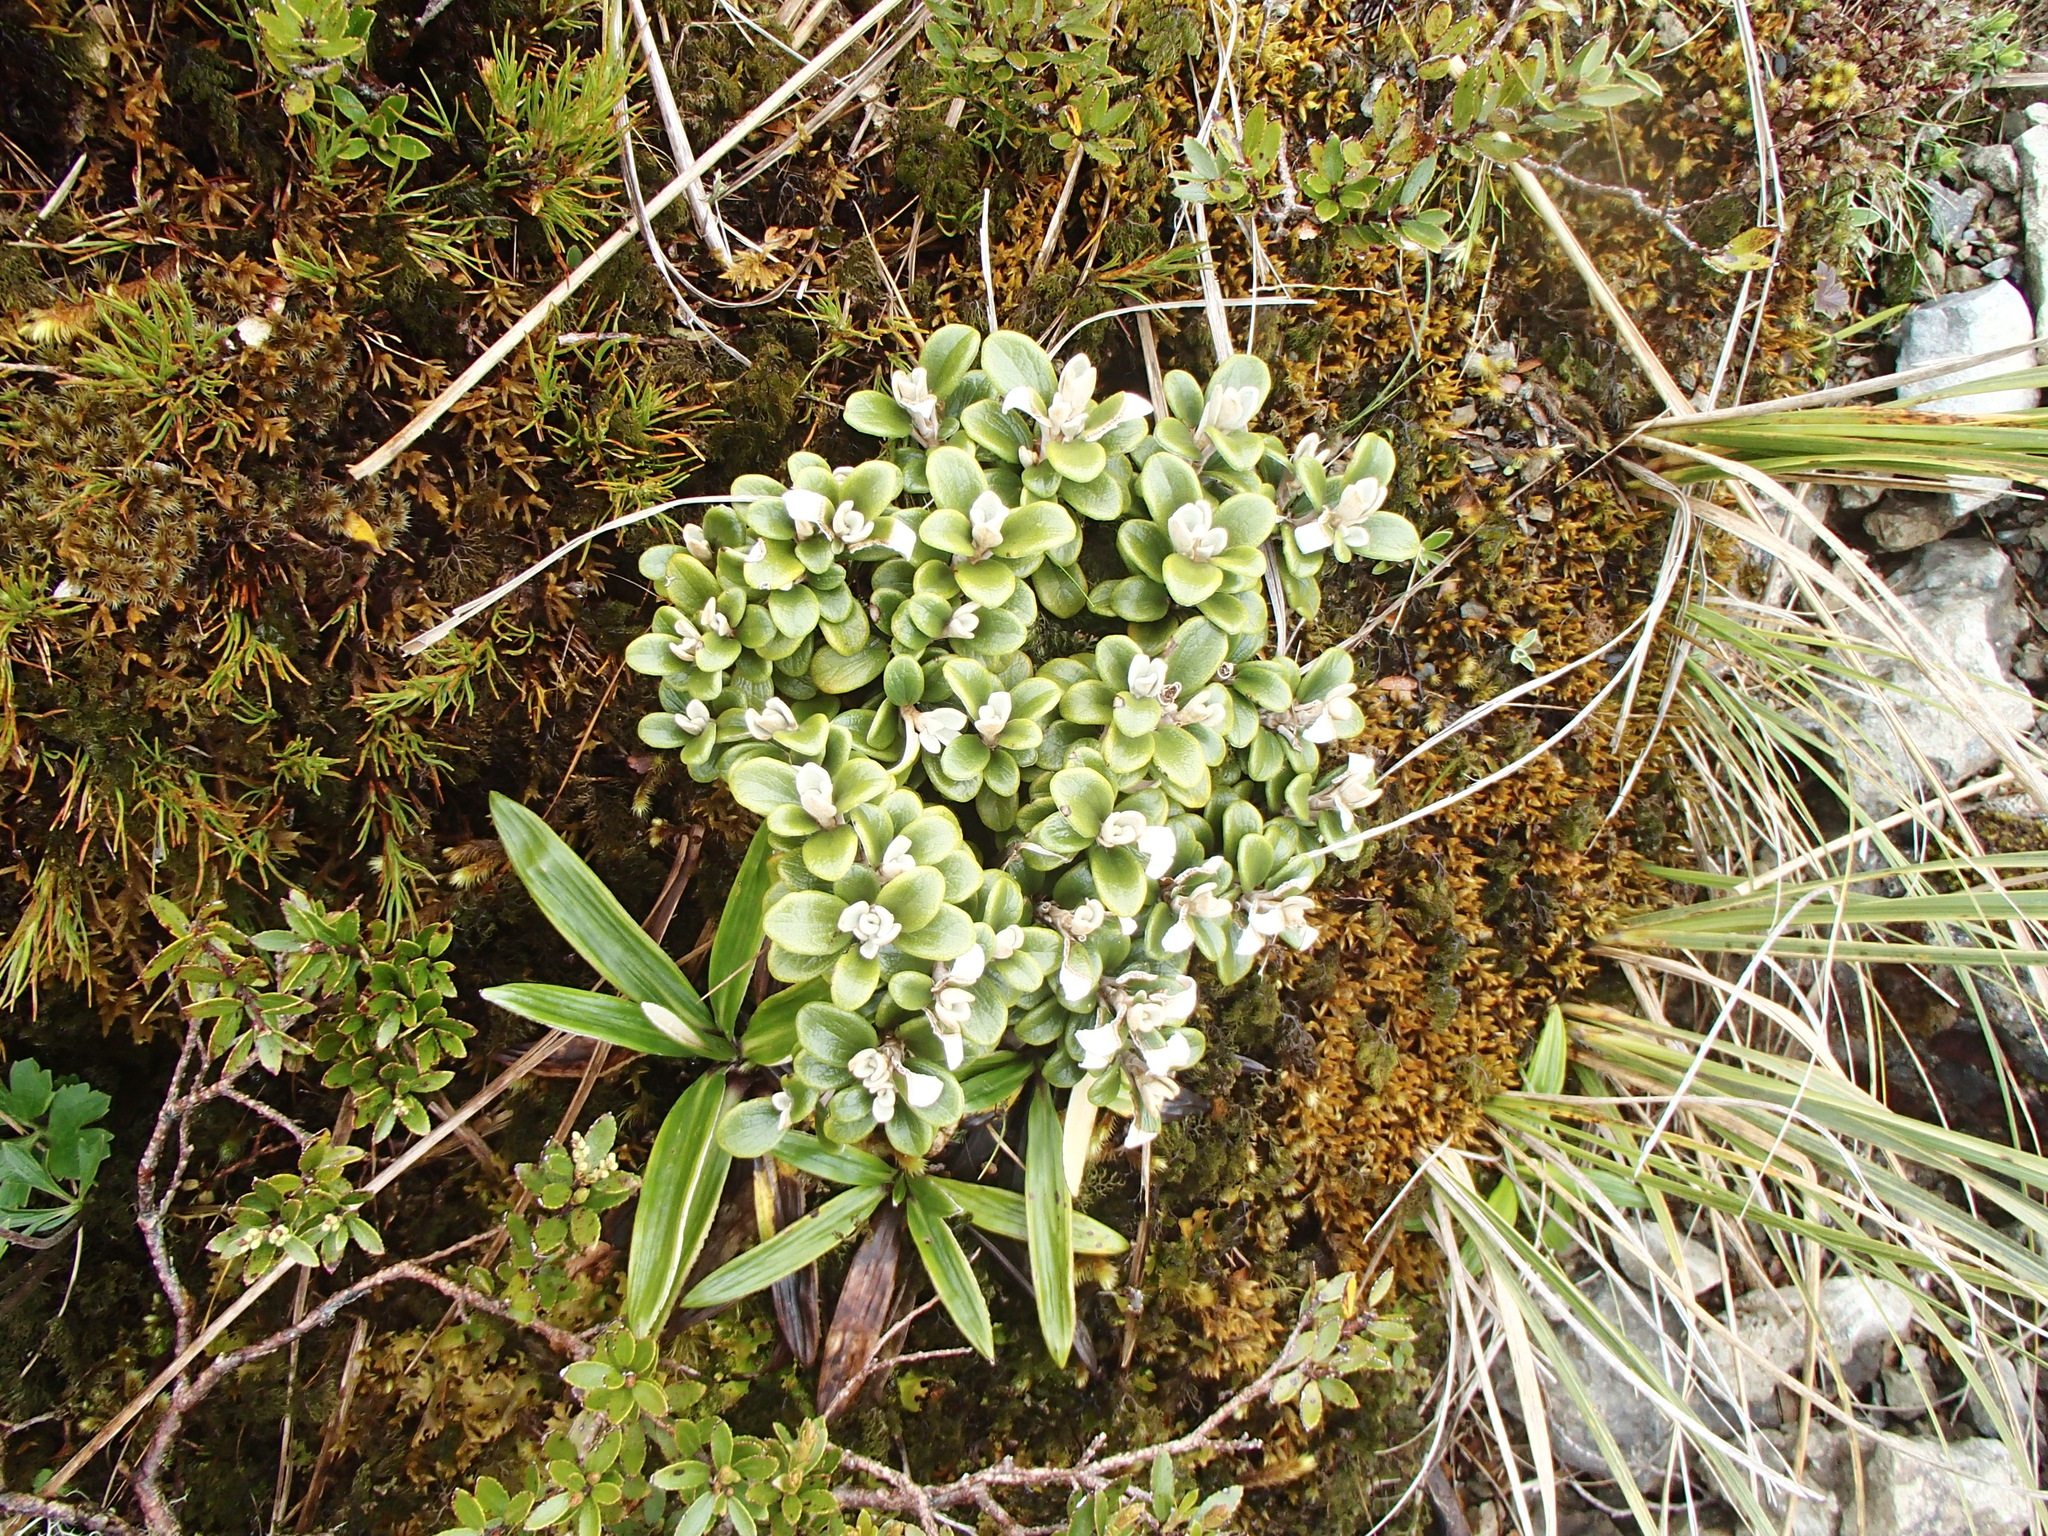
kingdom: Plantae
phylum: Tracheophyta
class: Magnoliopsida
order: Asterales
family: Asteraceae
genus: Brachyglottis
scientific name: Brachyglottis bidwillii
